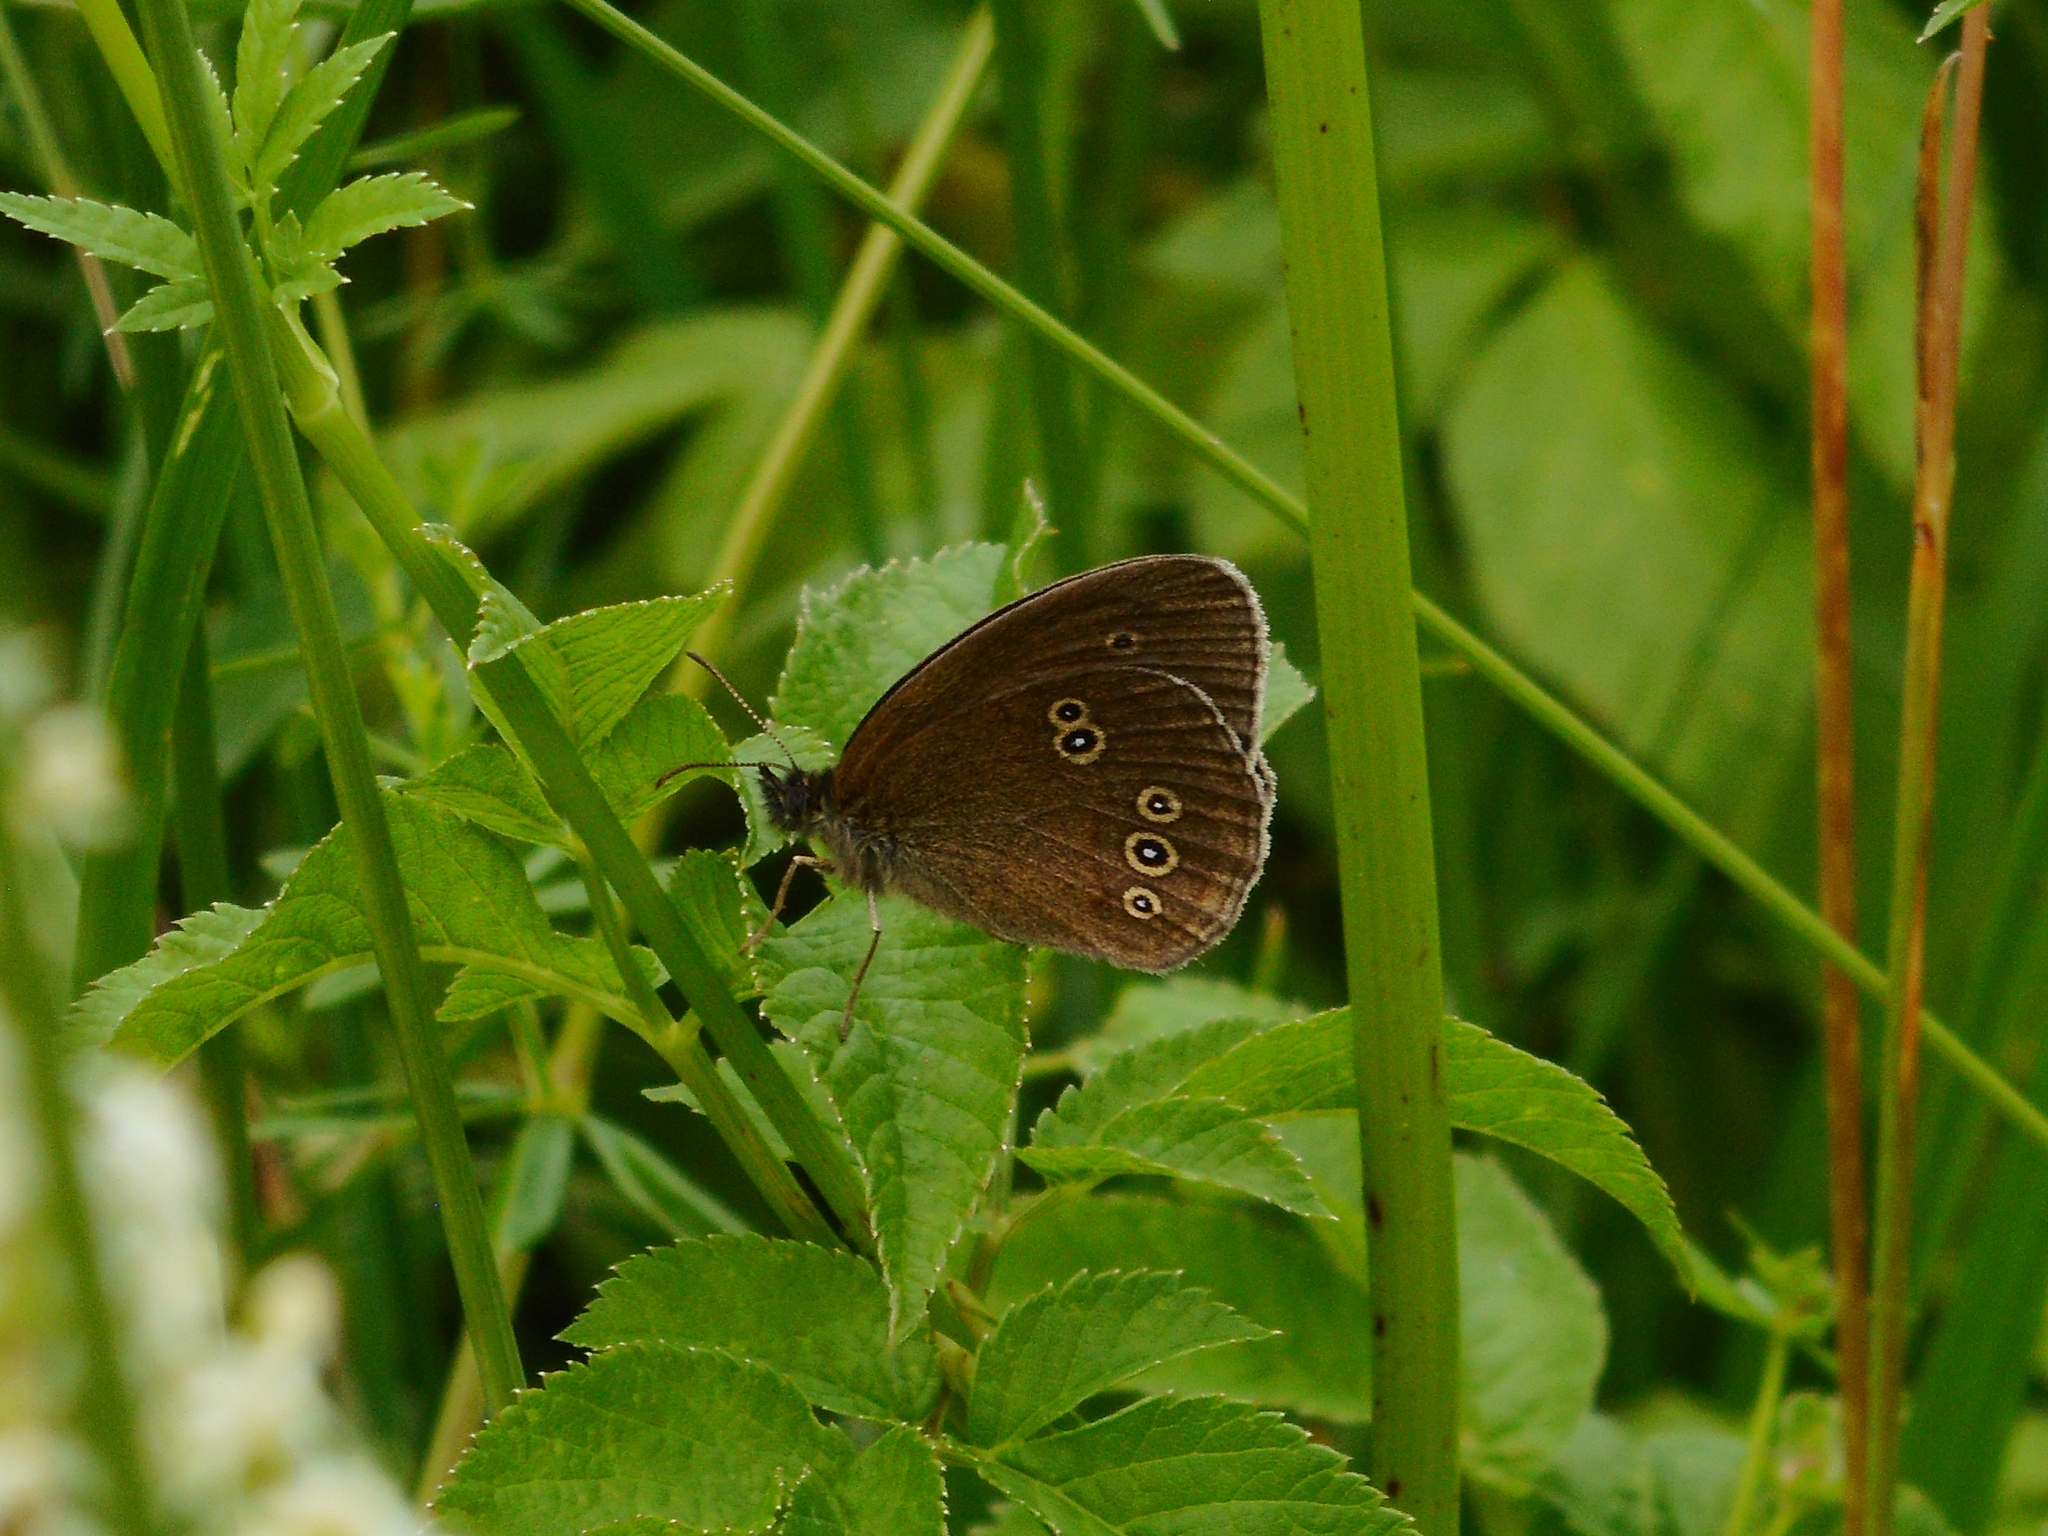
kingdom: Animalia
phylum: Arthropoda
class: Insecta
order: Lepidoptera
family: Nymphalidae
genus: Aphantopus
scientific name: Aphantopus hyperantus
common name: Ringlet
